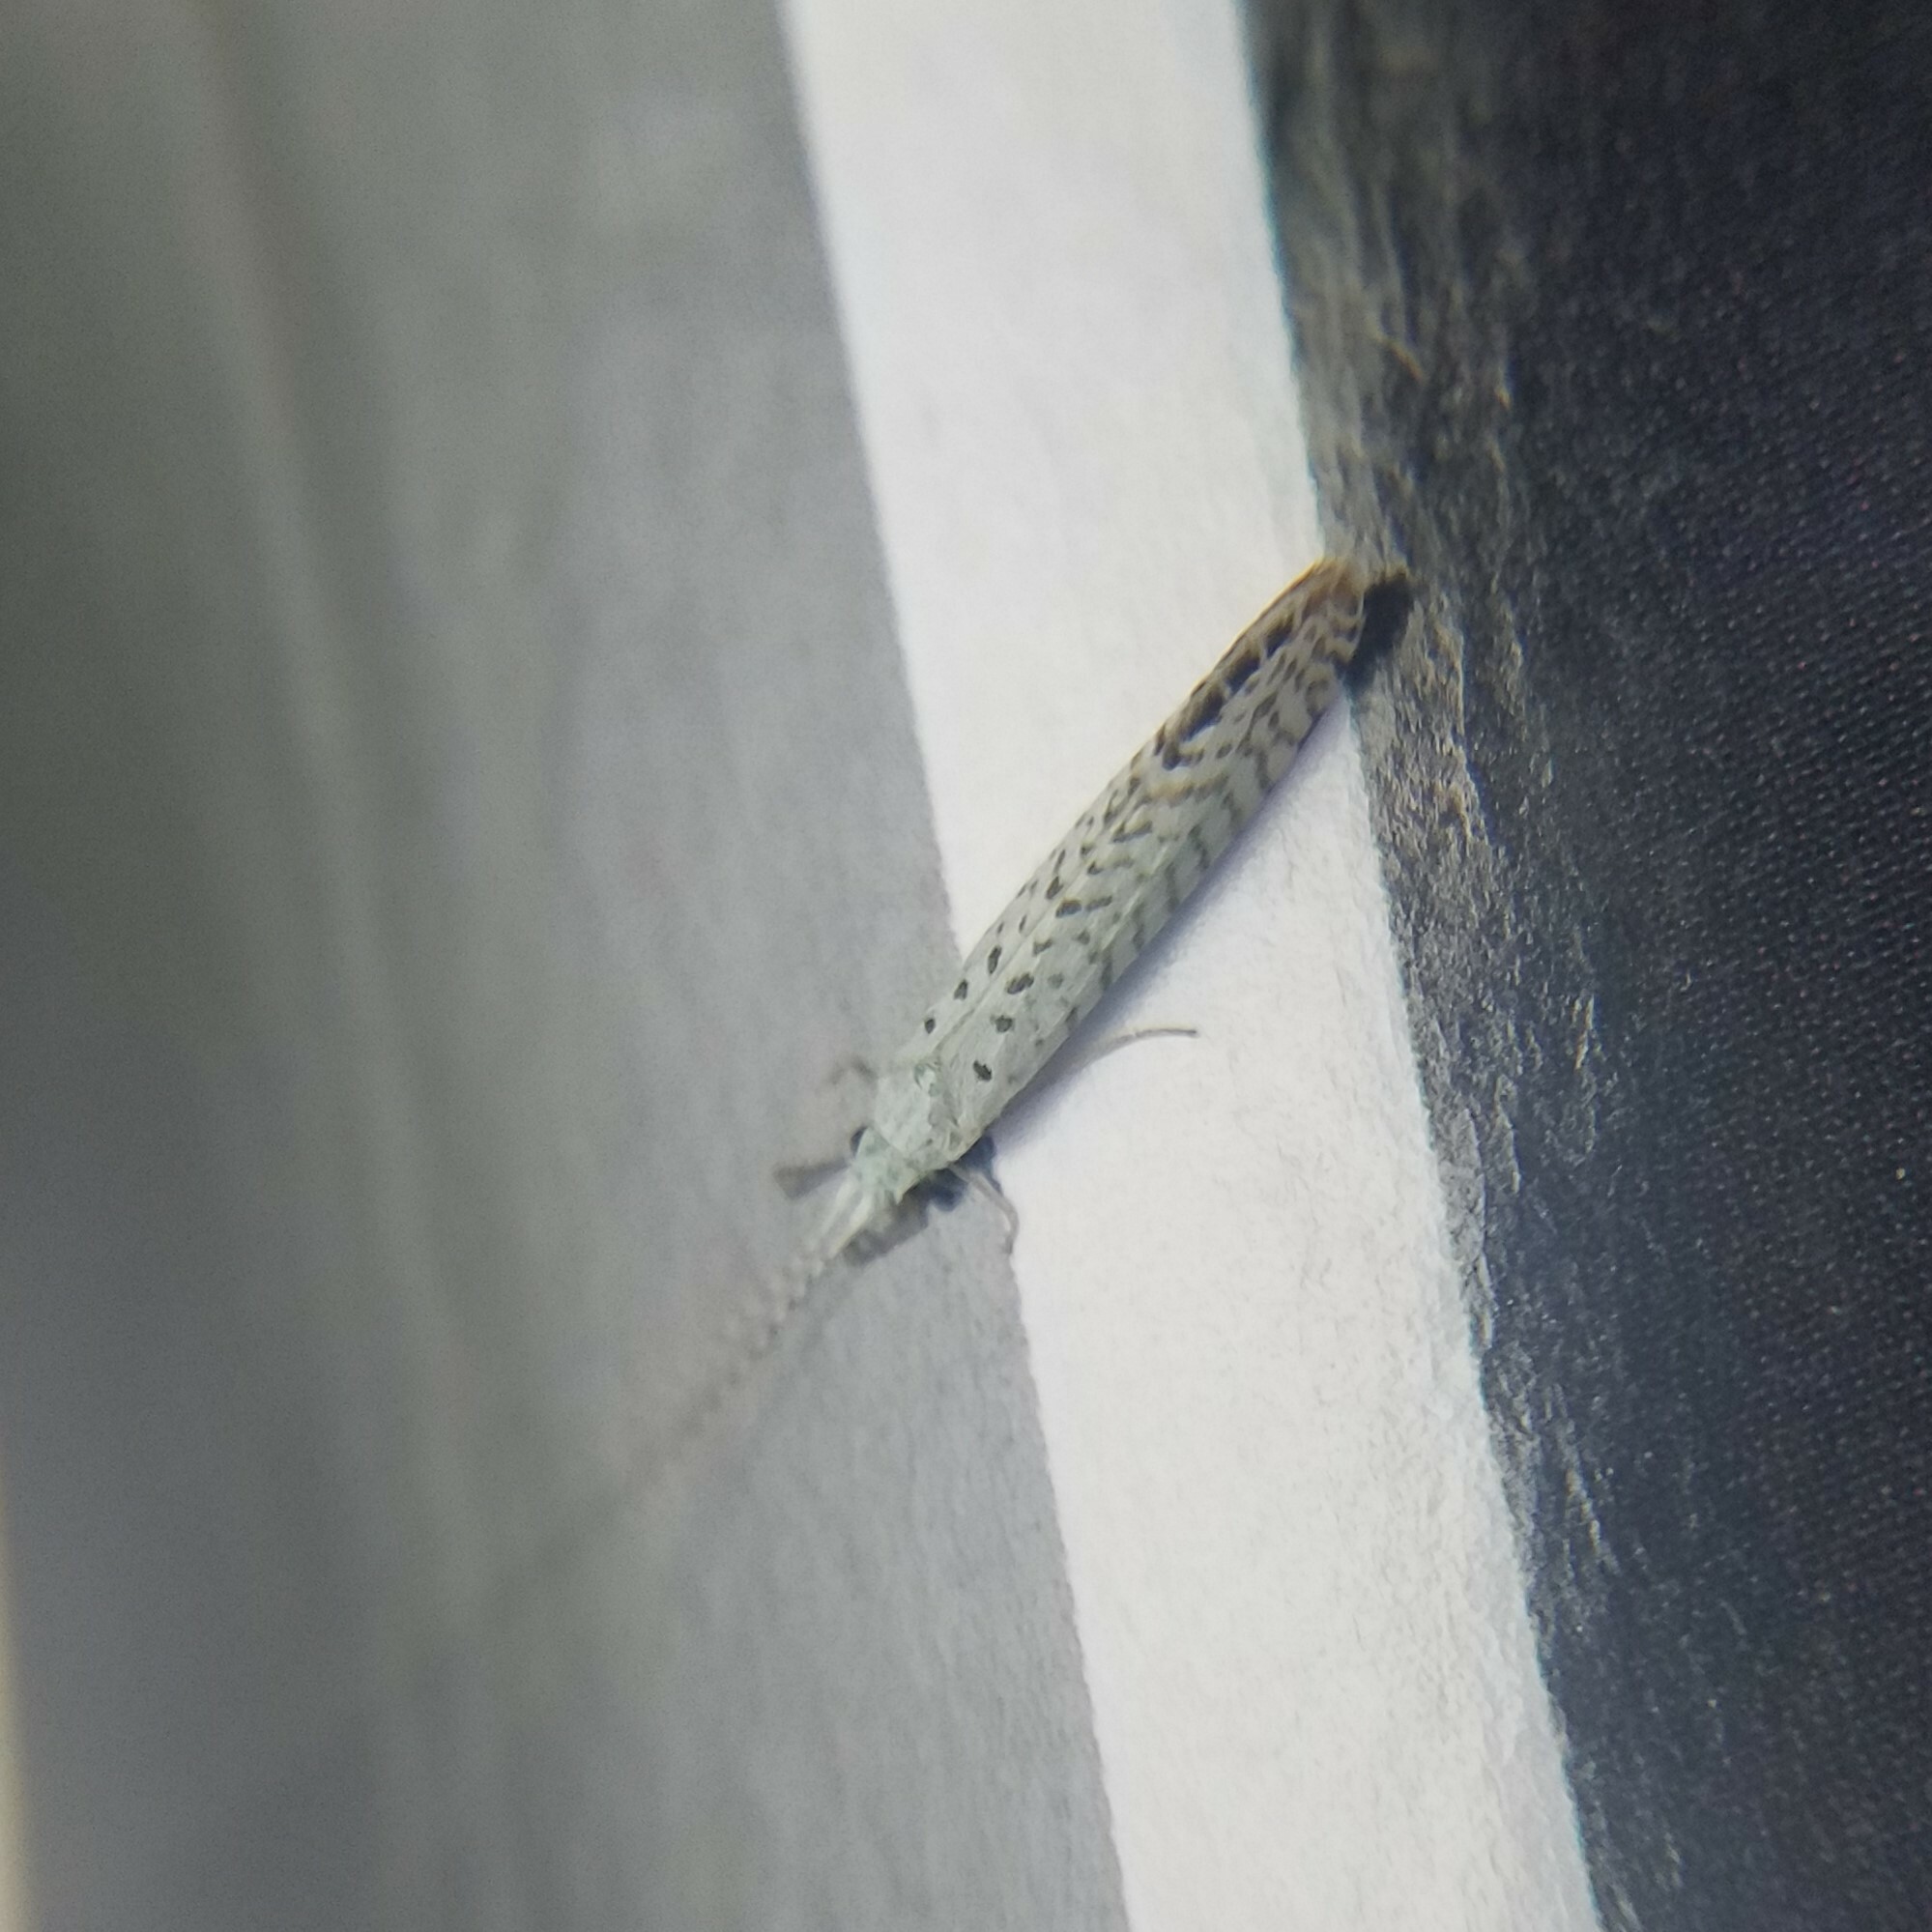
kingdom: Animalia
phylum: Arthropoda
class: Insecta
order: Trichoptera
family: Leptoceridae
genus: Nectopsyche
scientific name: Nectopsyche candida
